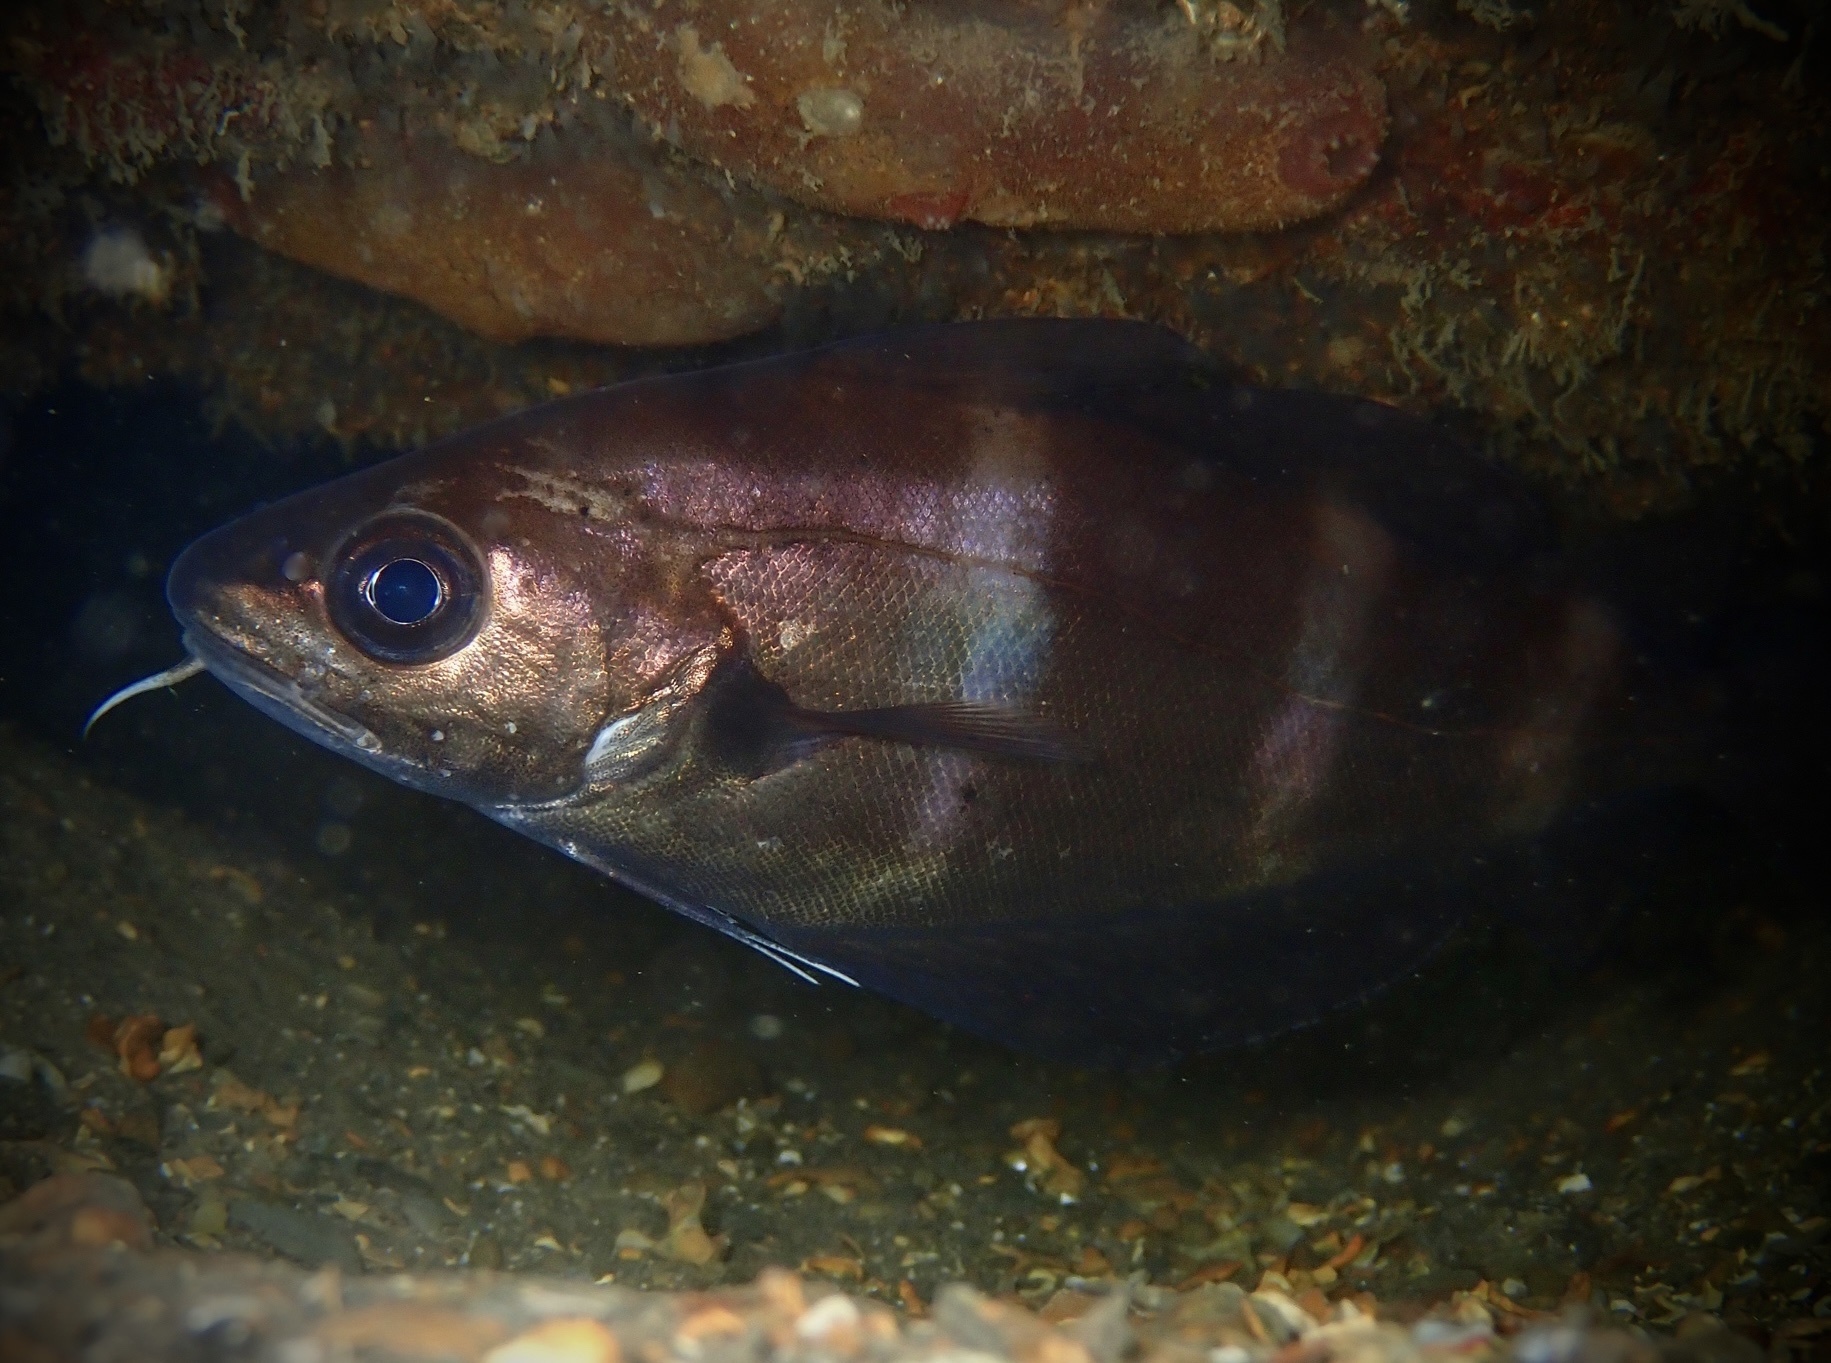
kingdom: Animalia
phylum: Chordata
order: Gadiformes
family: Gadidae
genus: Trisopterus
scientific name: Trisopterus luscus
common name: Bib
